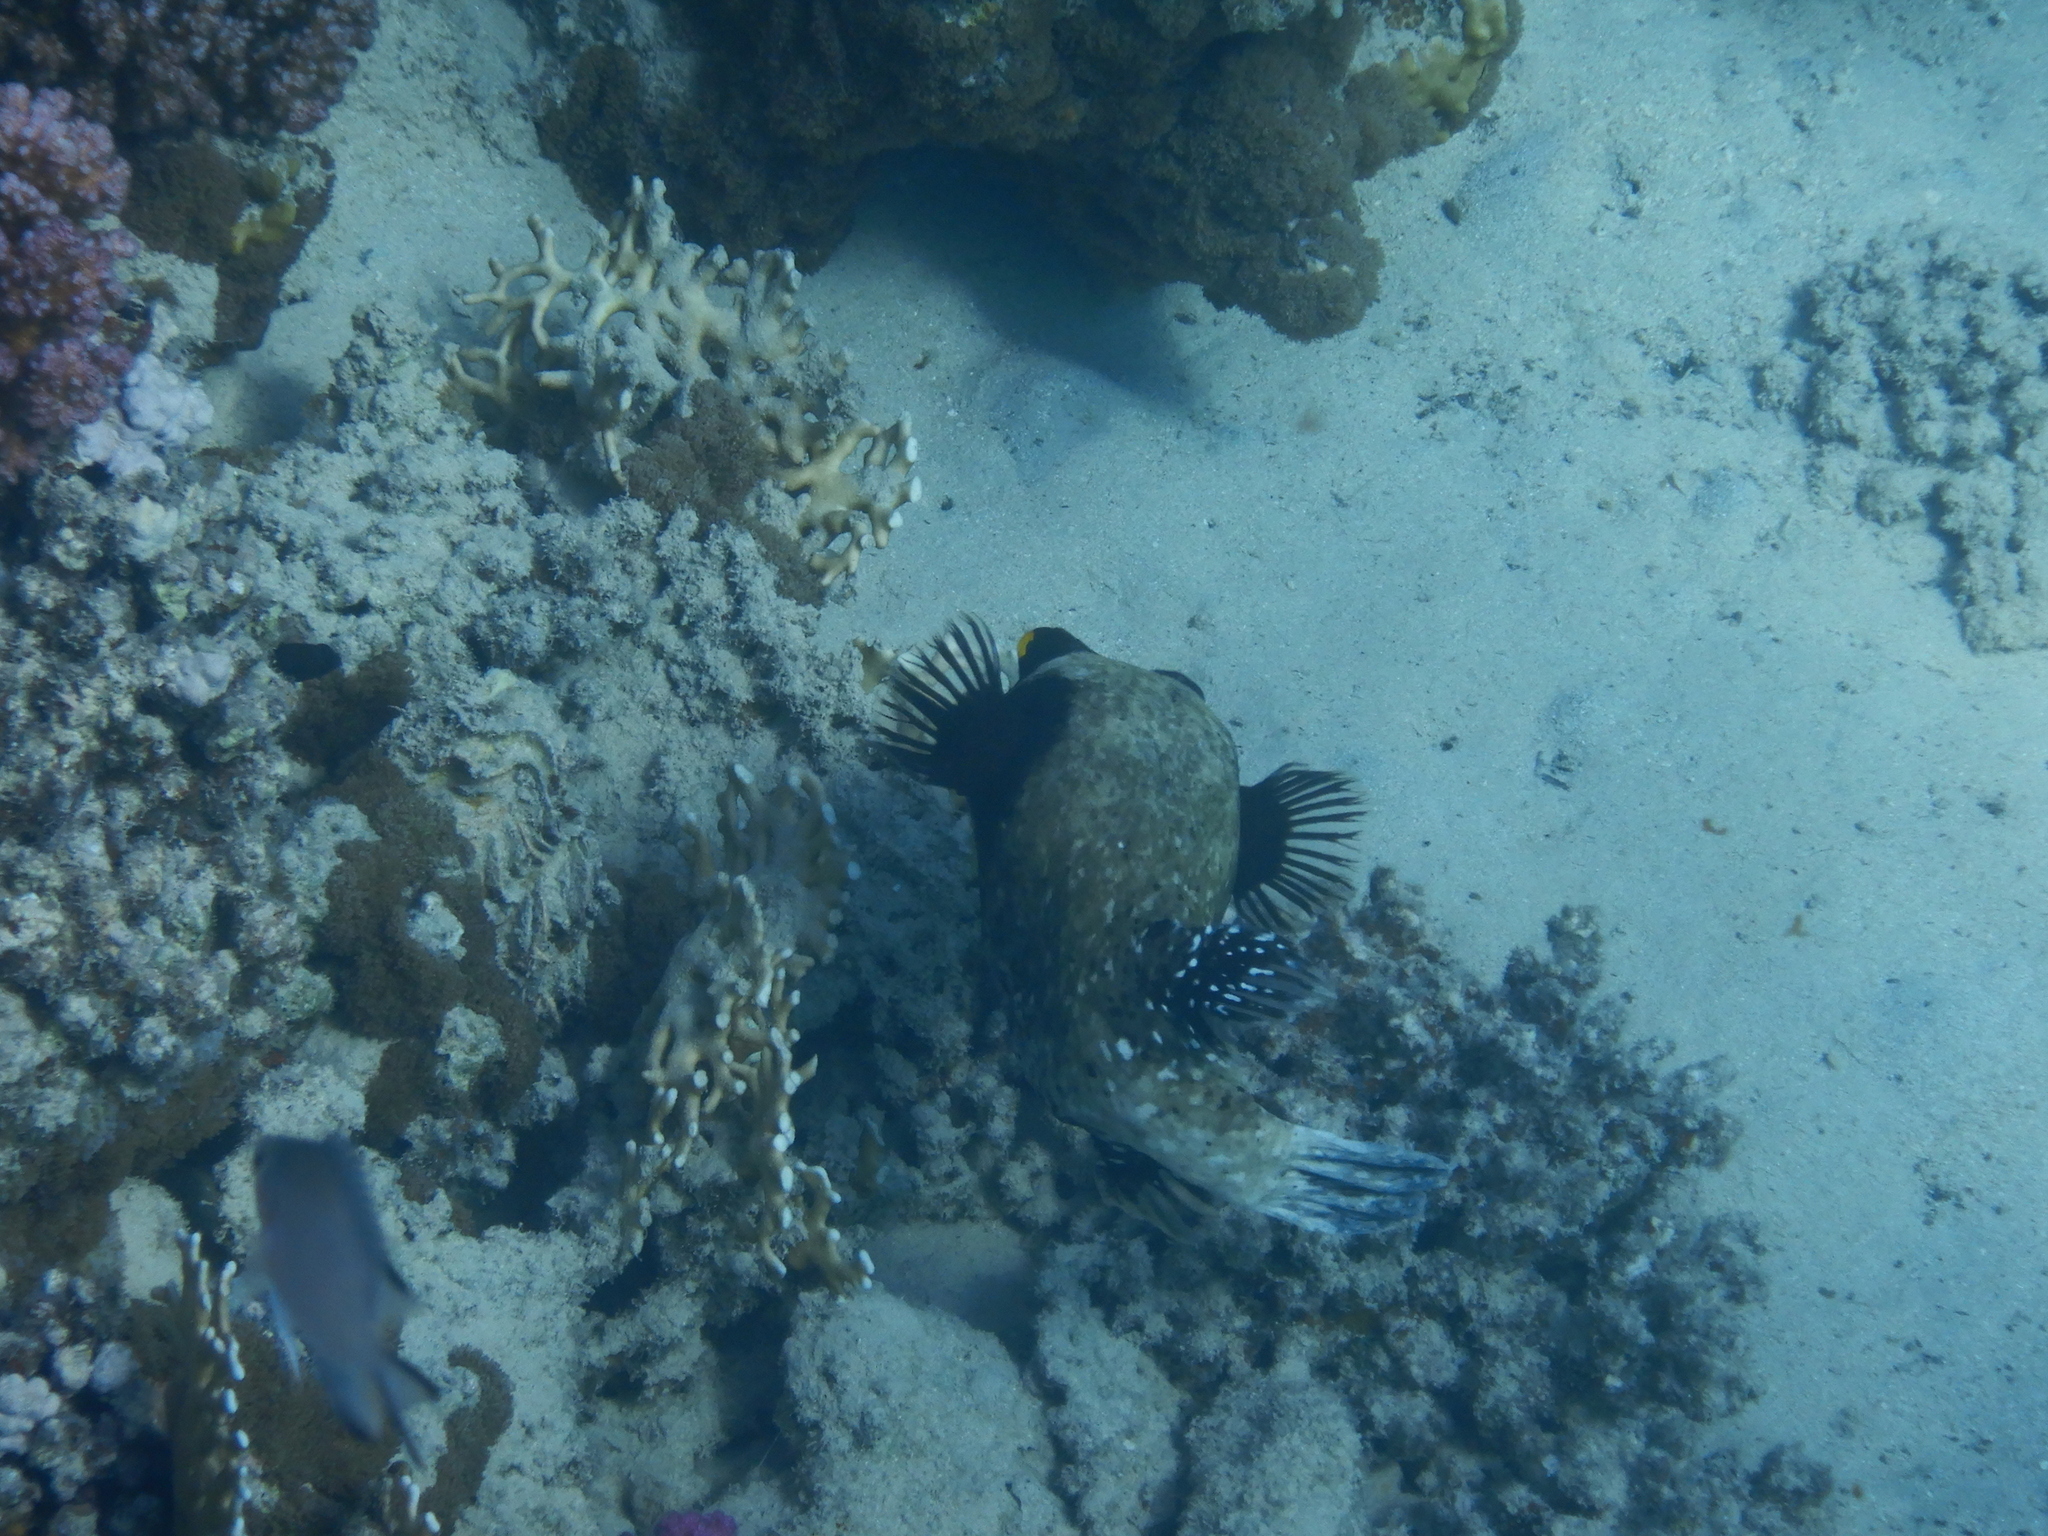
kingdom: Animalia
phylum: Chordata
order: Tetraodontiformes
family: Tetraodontidae
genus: Arothron
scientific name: Arothron diadematus
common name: Masked puffer
